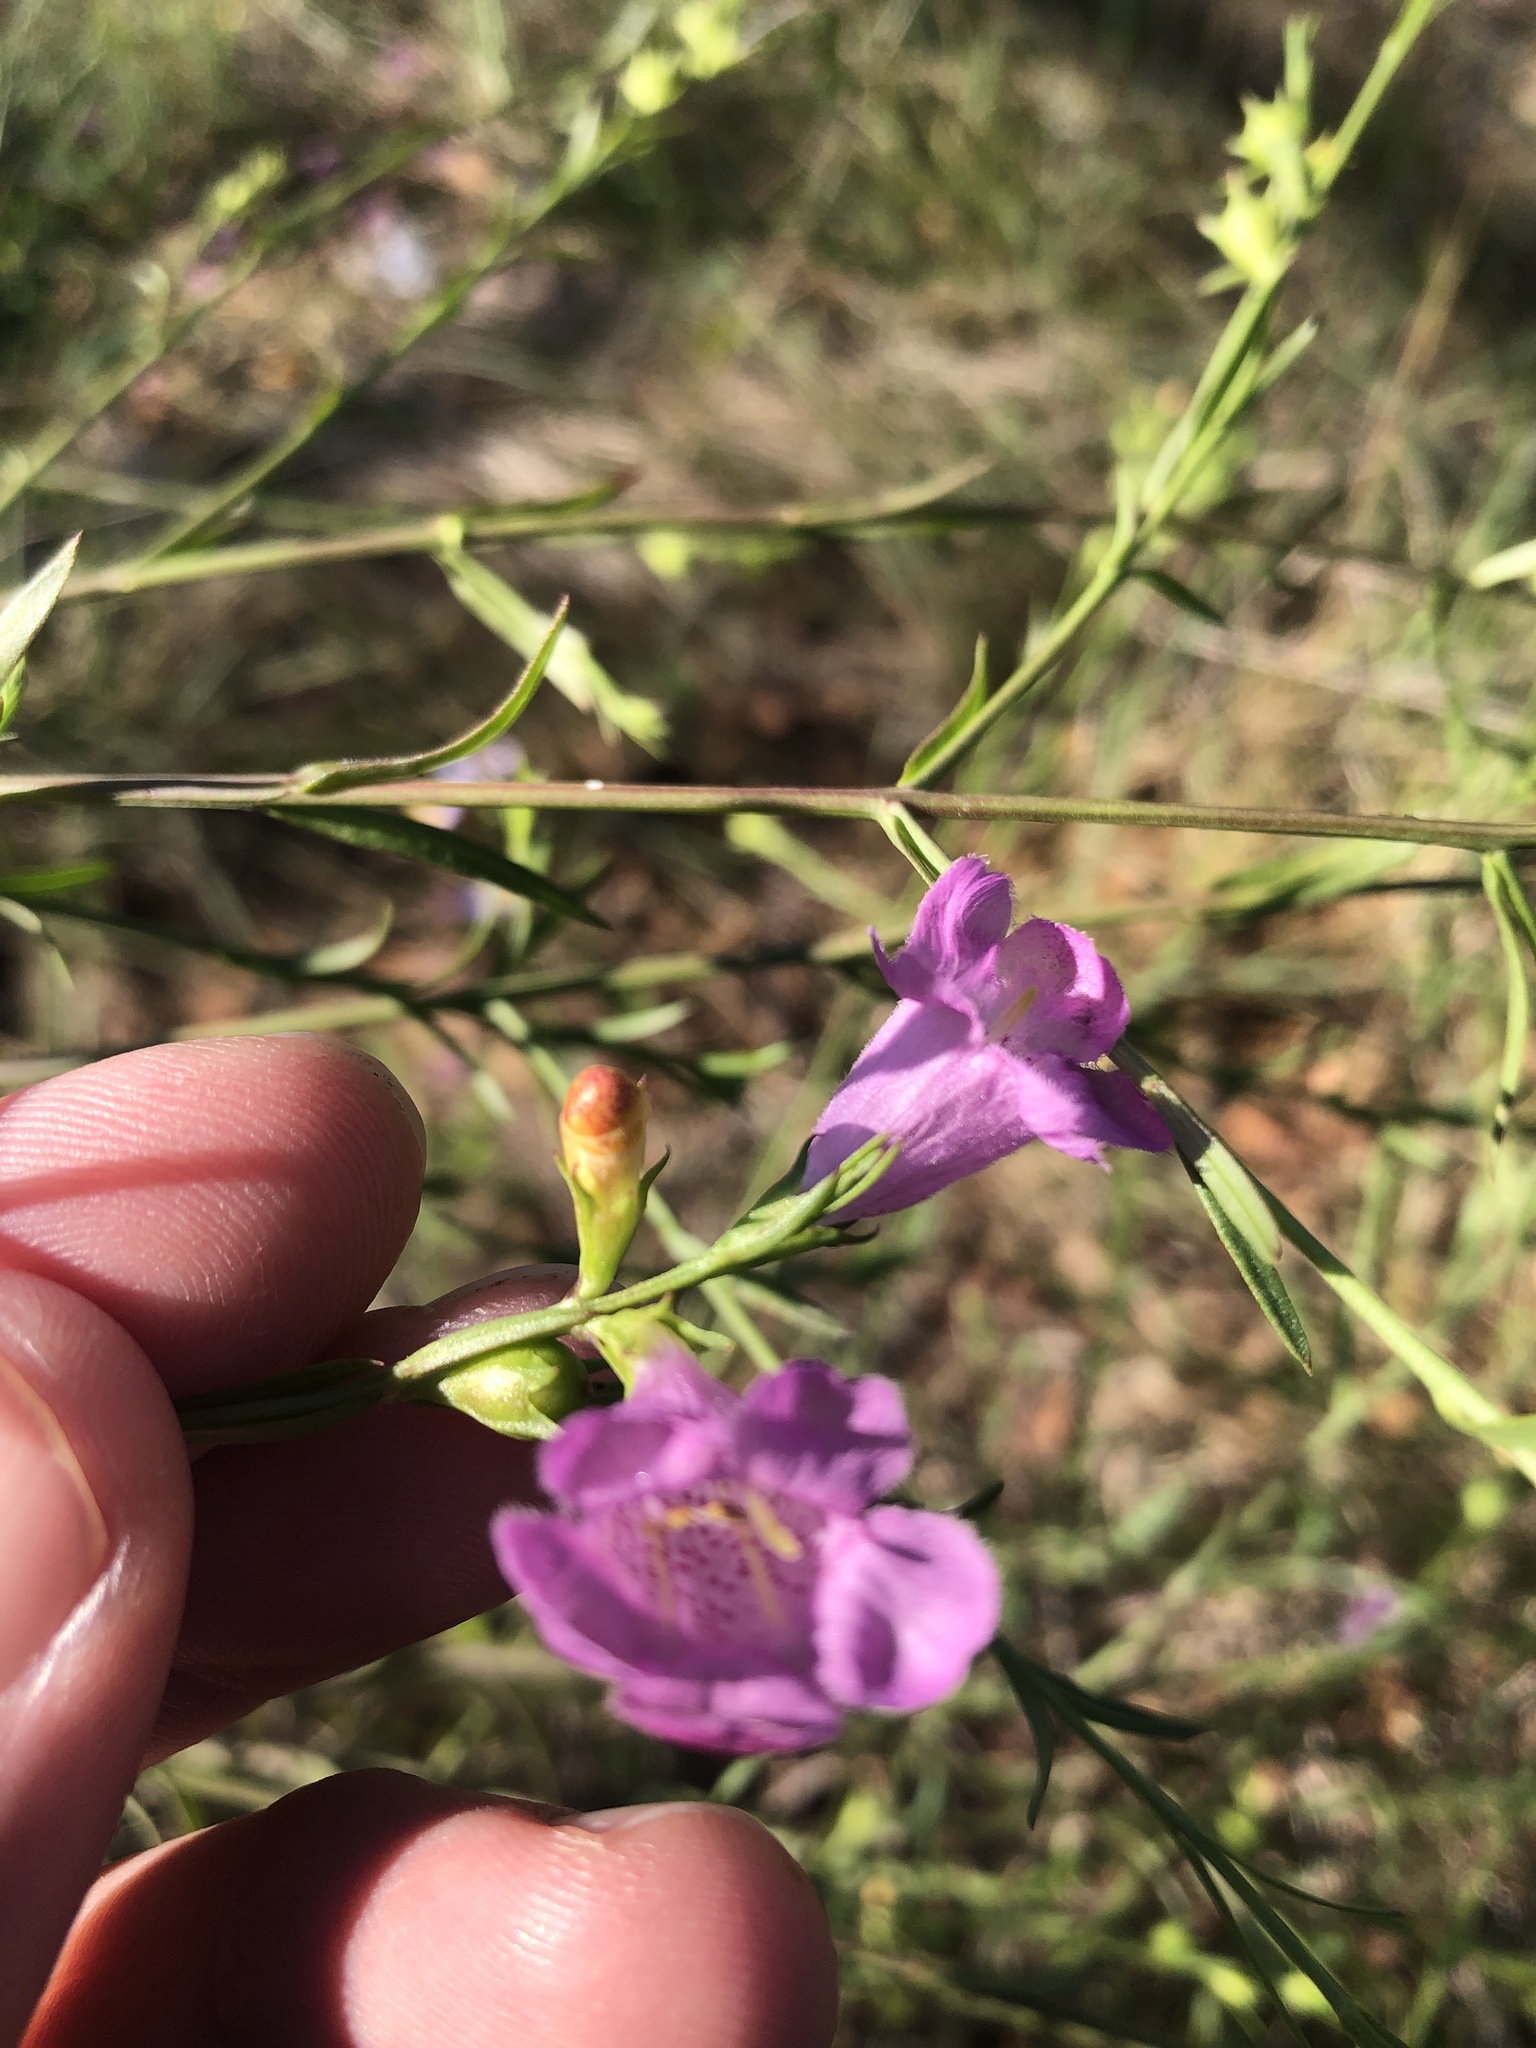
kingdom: Plantae
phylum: Tracheophyta
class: Magnoliopsida
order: Lamiales
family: Orobanchaceae
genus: Agalinis
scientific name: Agalinis heterophylla
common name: Prairie agalinis
